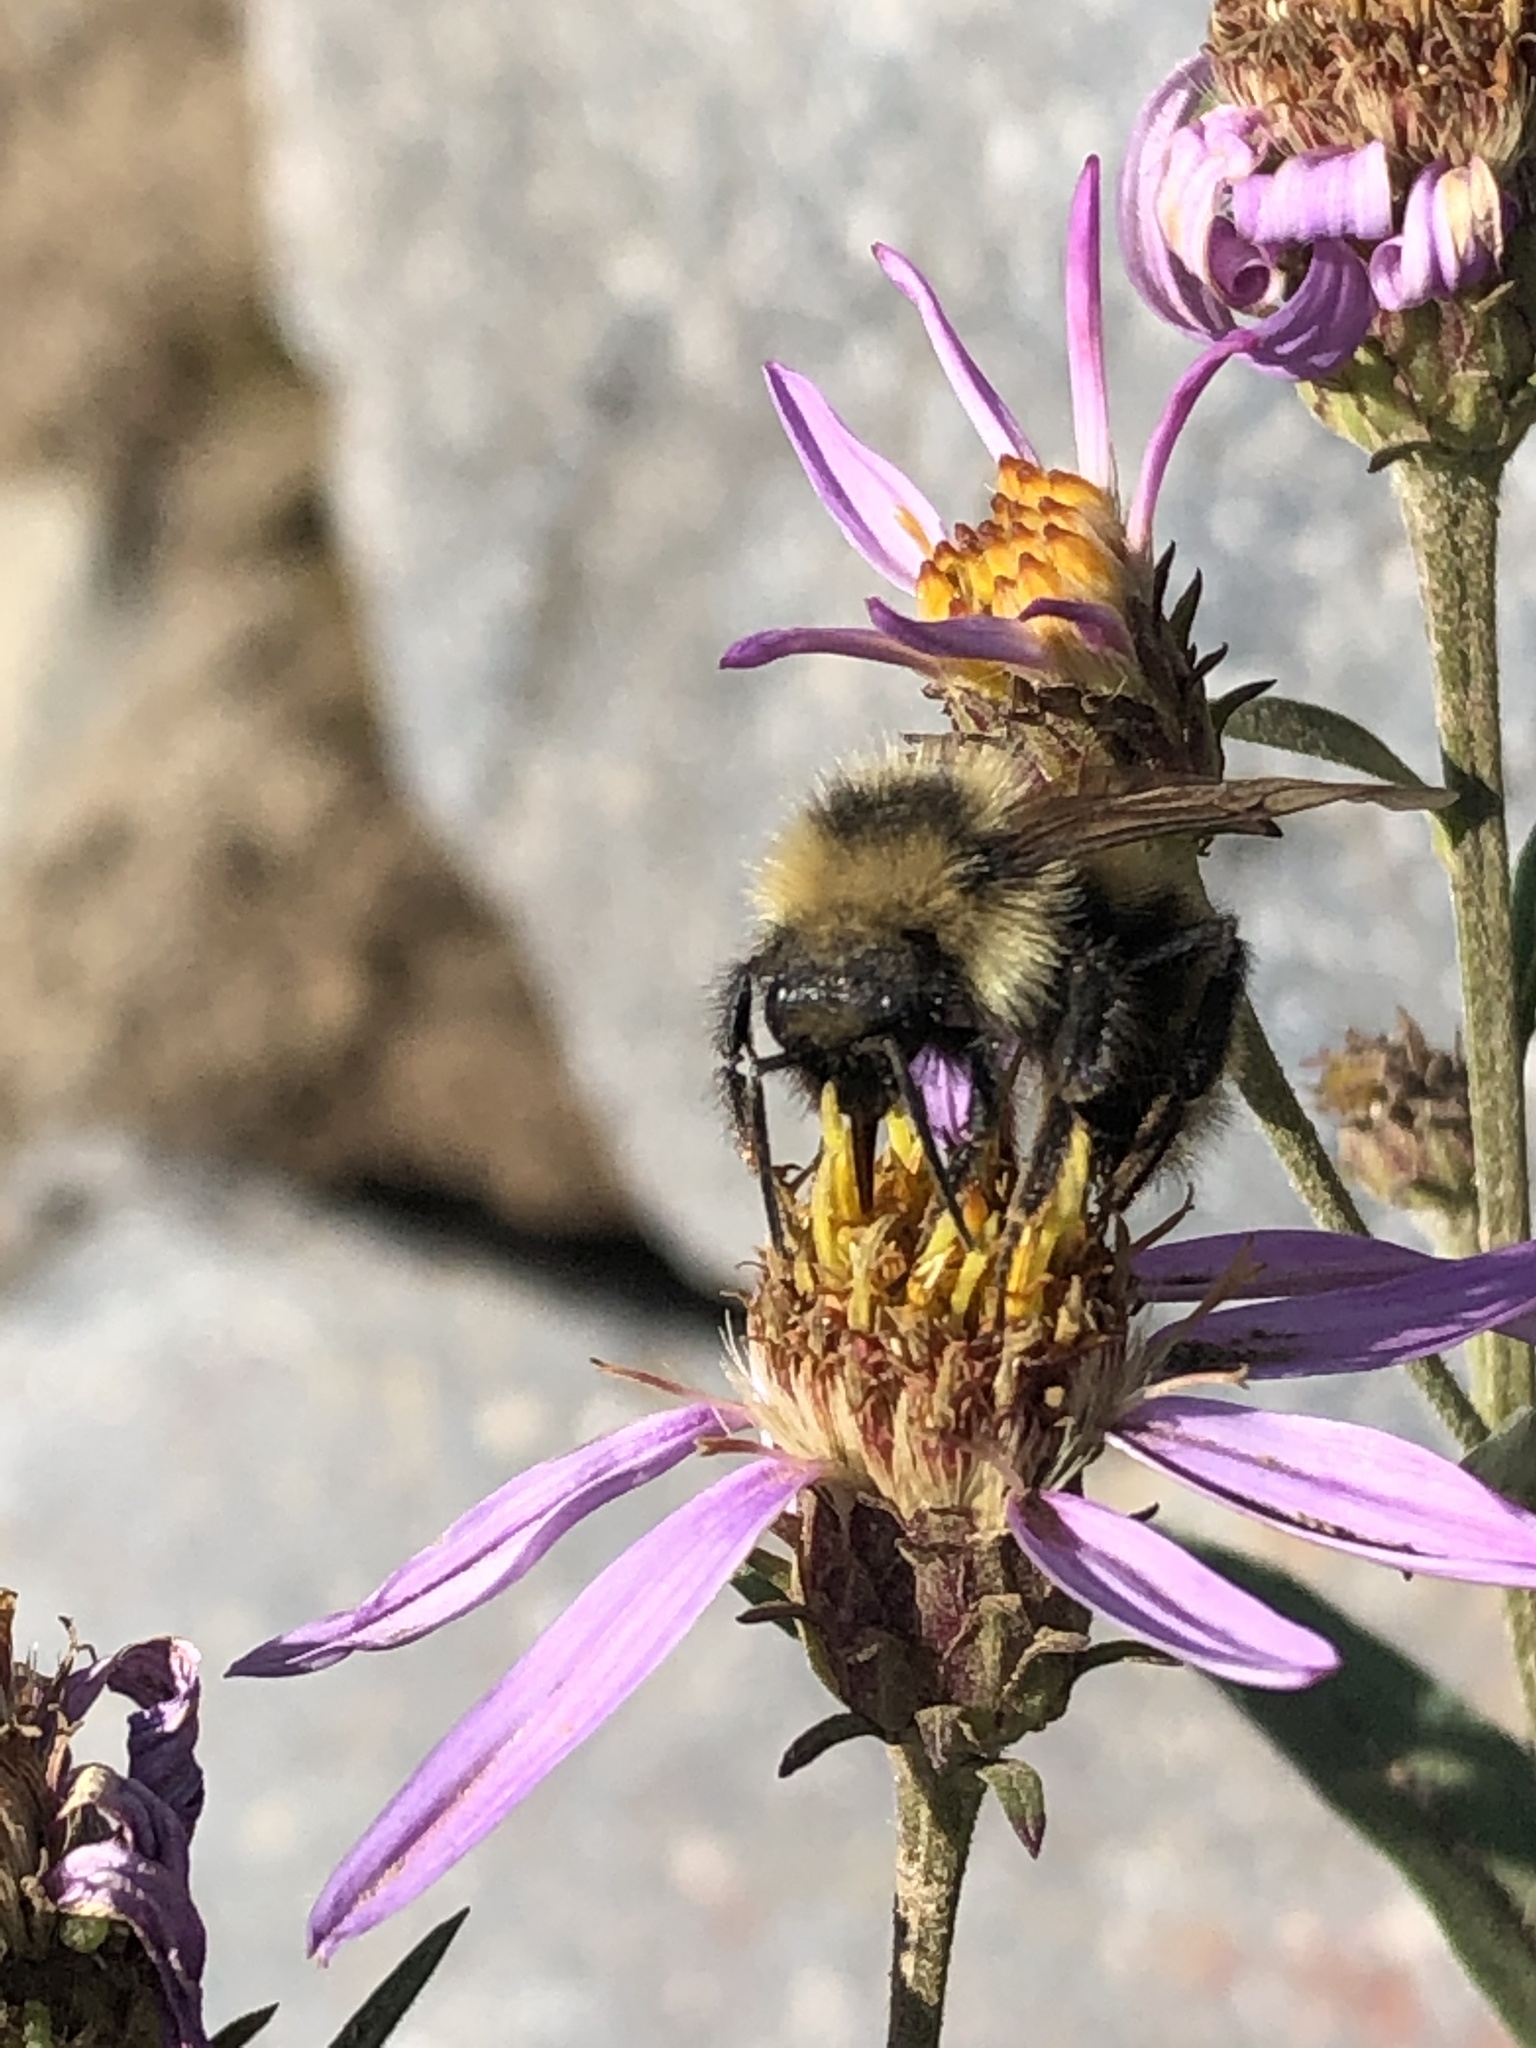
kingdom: Animalia
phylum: Arthropoda
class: Insecta
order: Hymenoptera
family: Apidae
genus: Bombus
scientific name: Bombus insularis
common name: Indiscriminate cuckoo bumble bee
